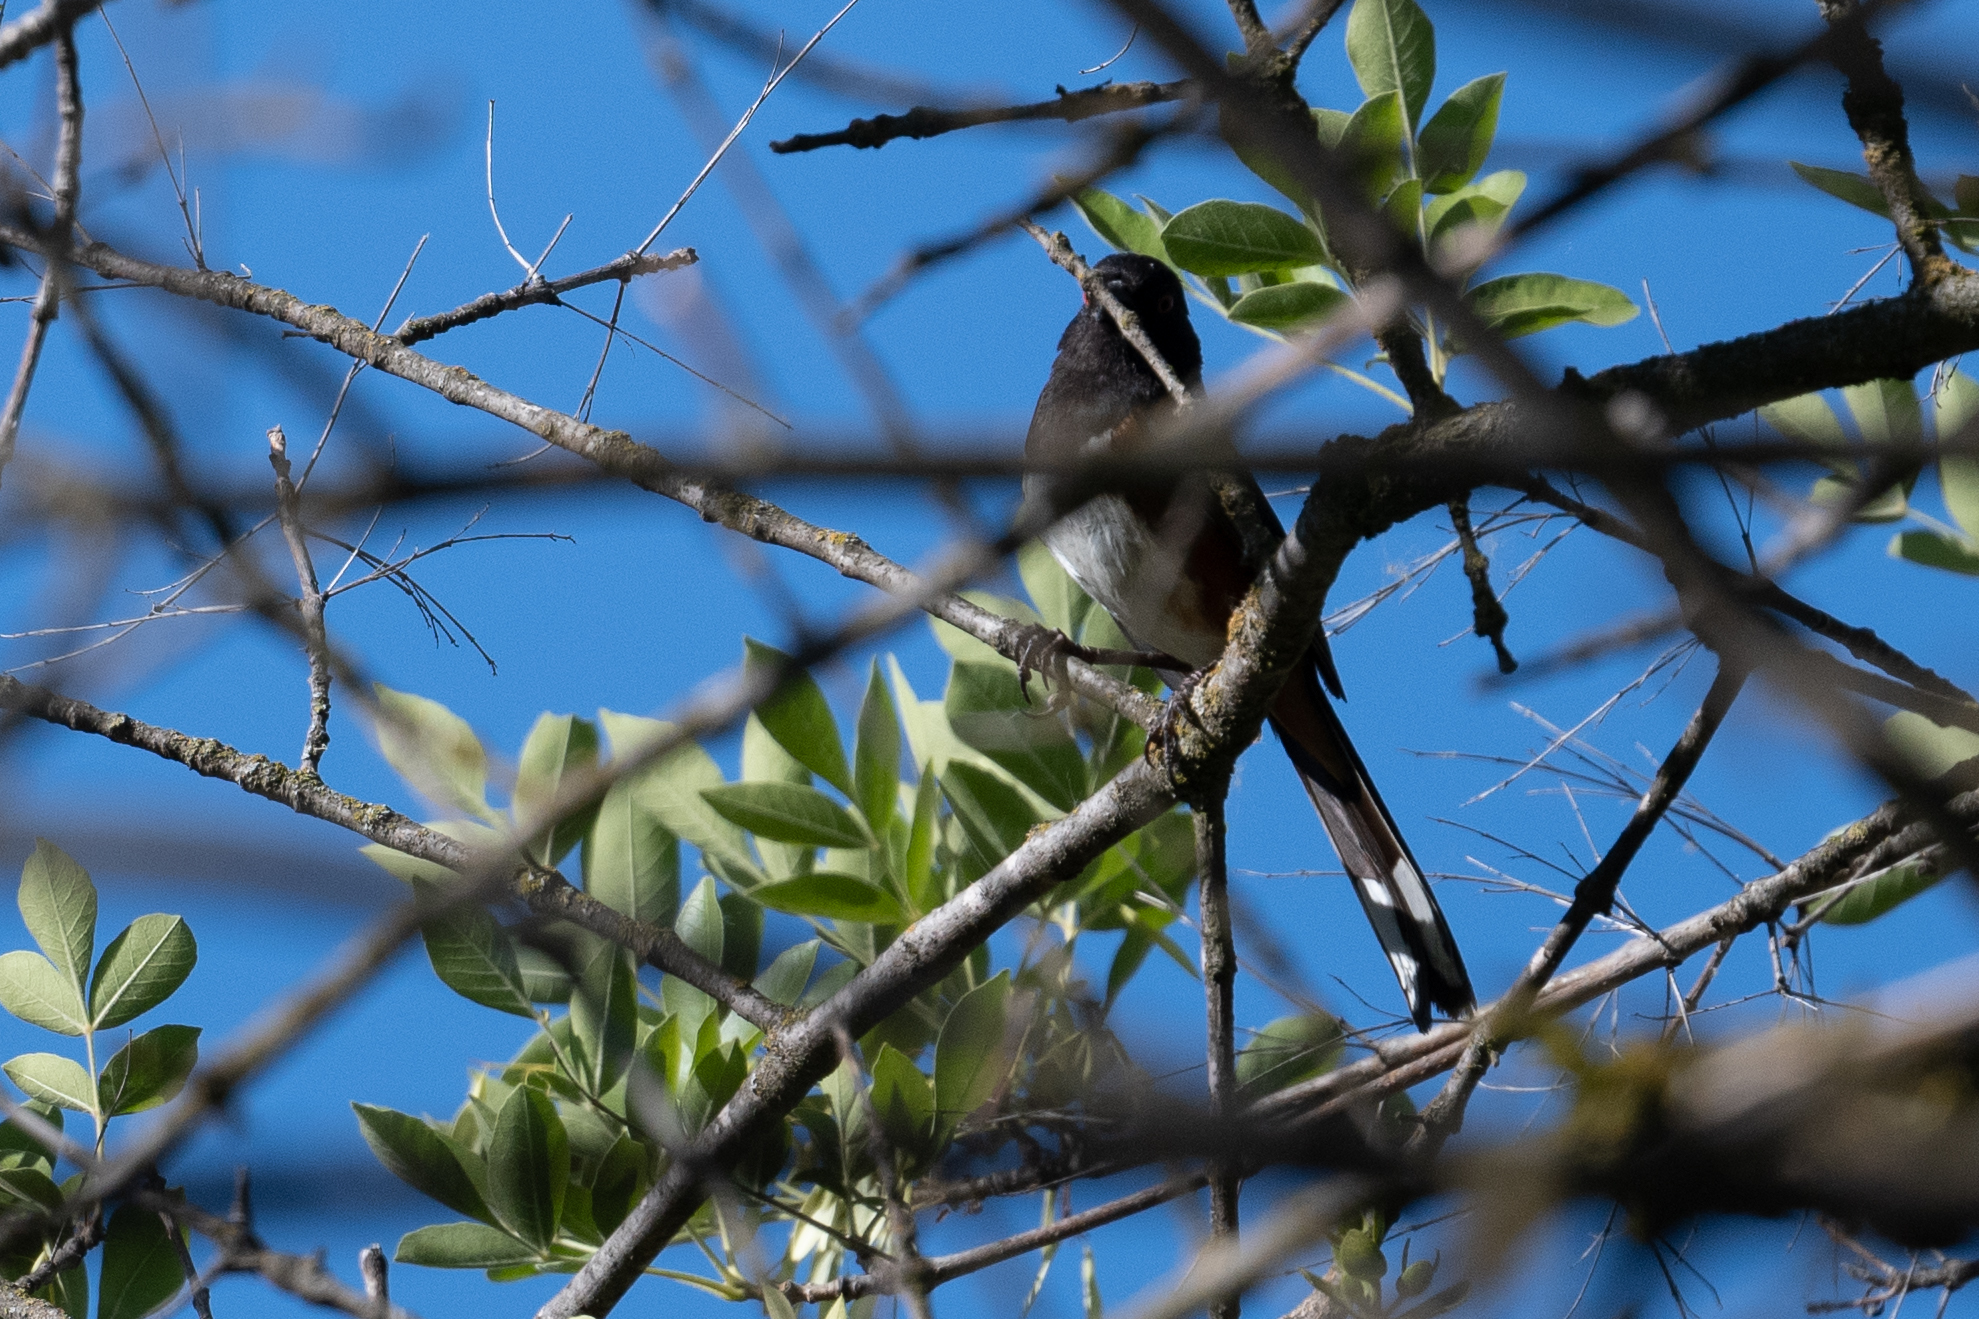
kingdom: Animalia
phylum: Chordata
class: Aves
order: Passeriformes
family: Passerellidae
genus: Pipilo
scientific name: Pipilo maculatus
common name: Spotted towhee
